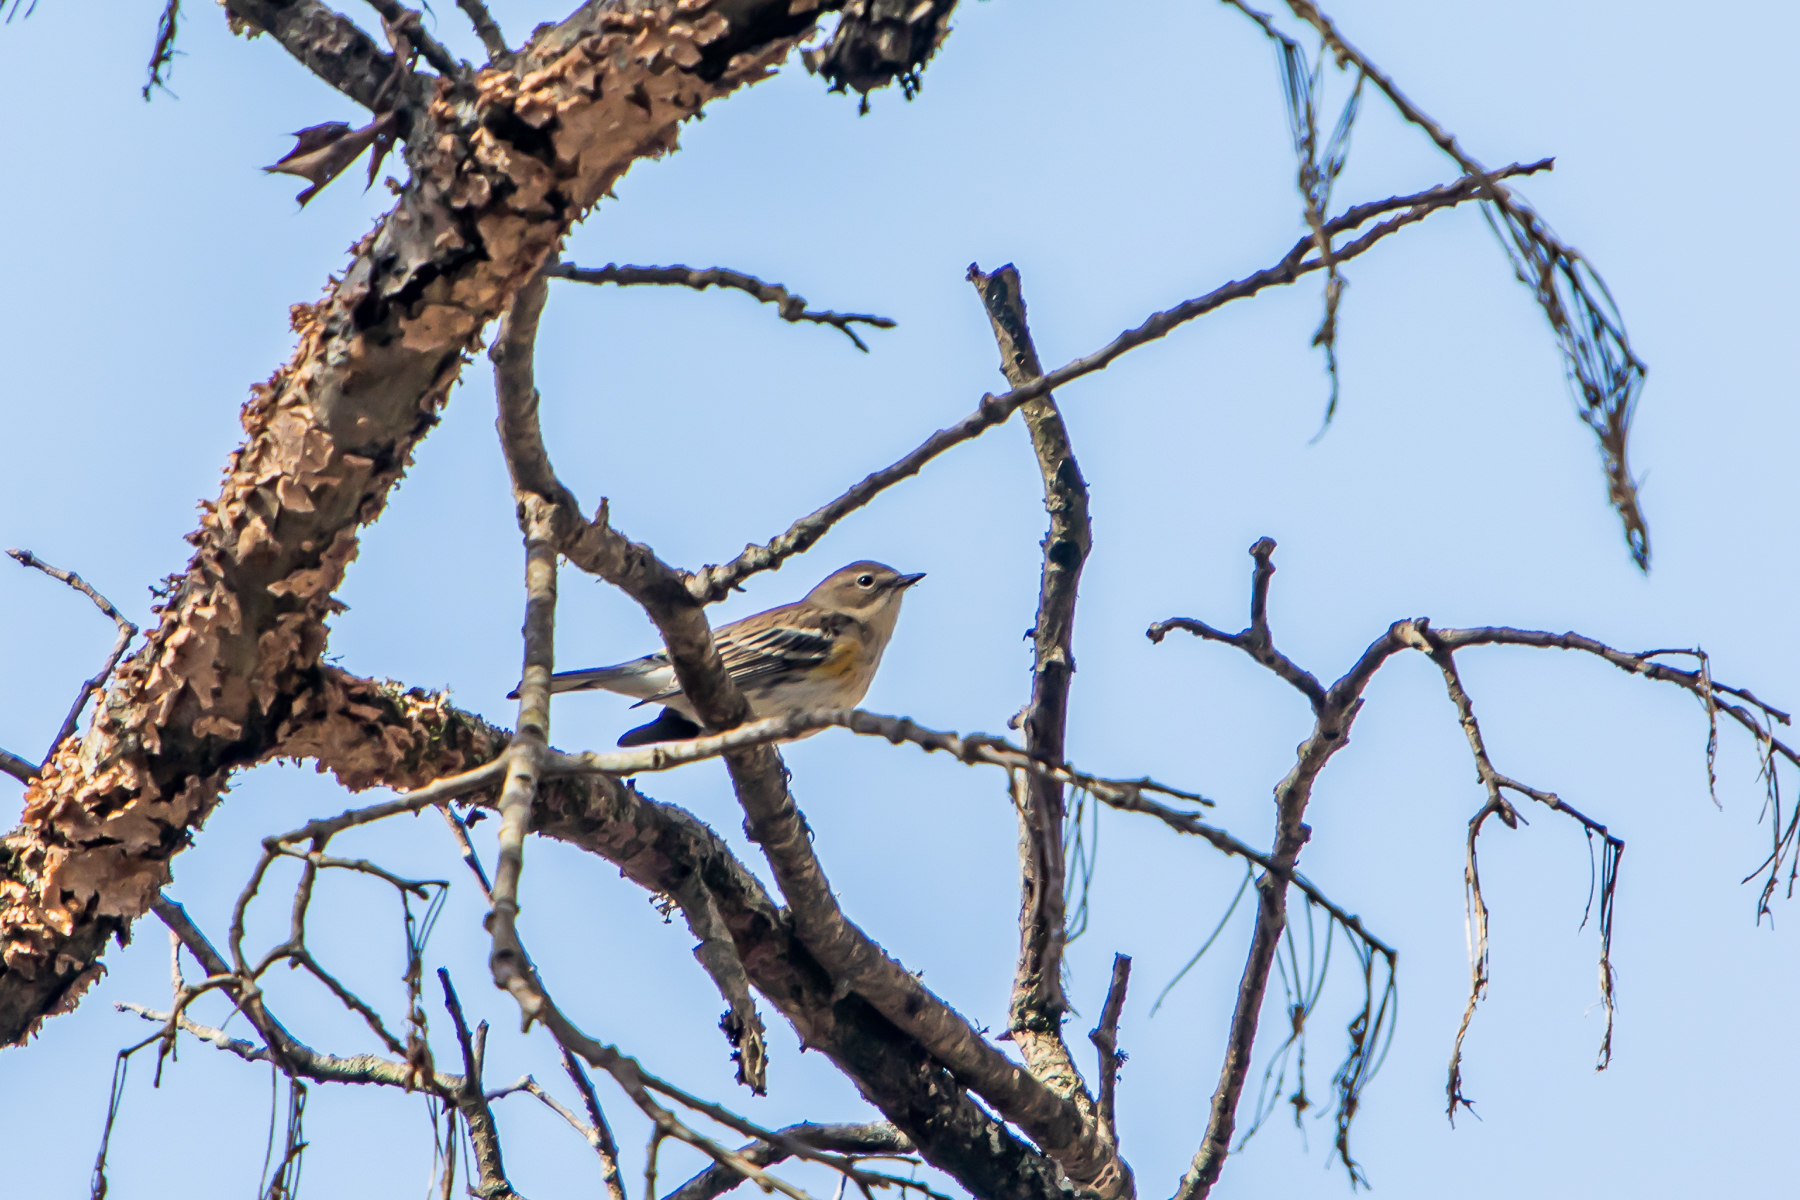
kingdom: Animalia
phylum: Chordata
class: Aves
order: Passeriformes
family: Parulidae
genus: Setophaga
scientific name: Setophaga coronata
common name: Myrtle warbler
